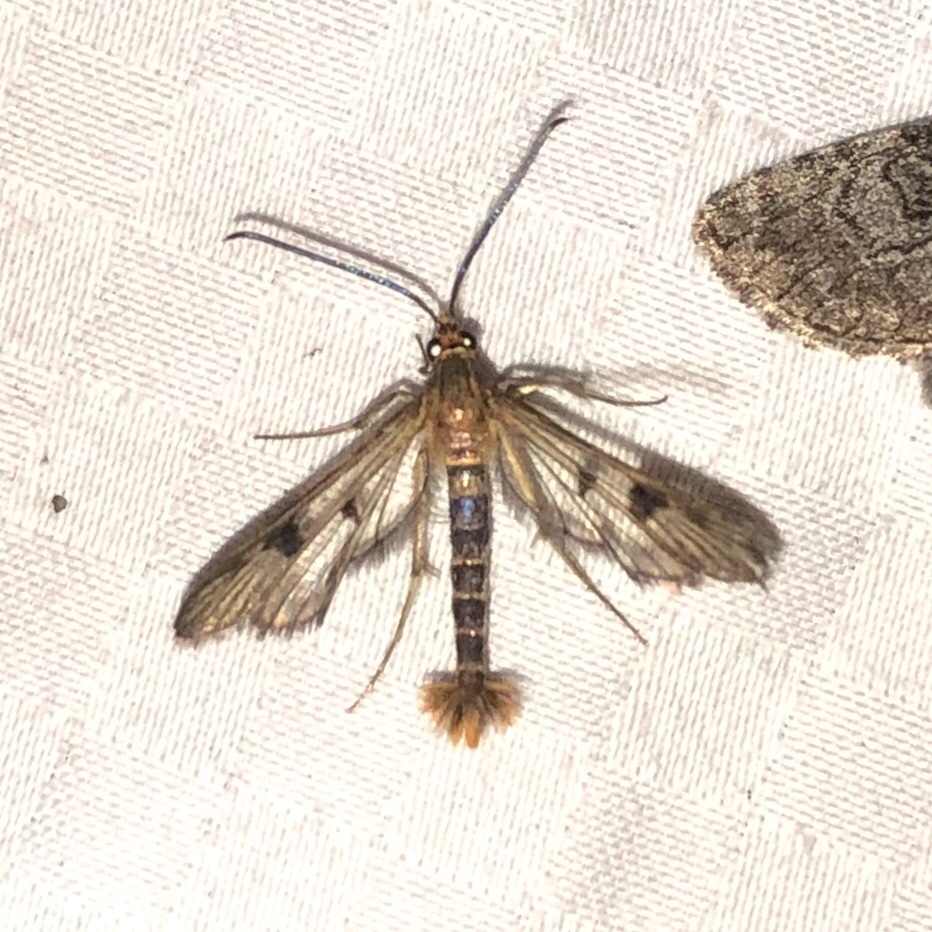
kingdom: Animalia
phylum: Arthropoda
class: Insecta
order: Lepidoptera
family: Sesiidae
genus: Synanthedon
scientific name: Synanthedon acerni
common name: Maple callus borer moth
